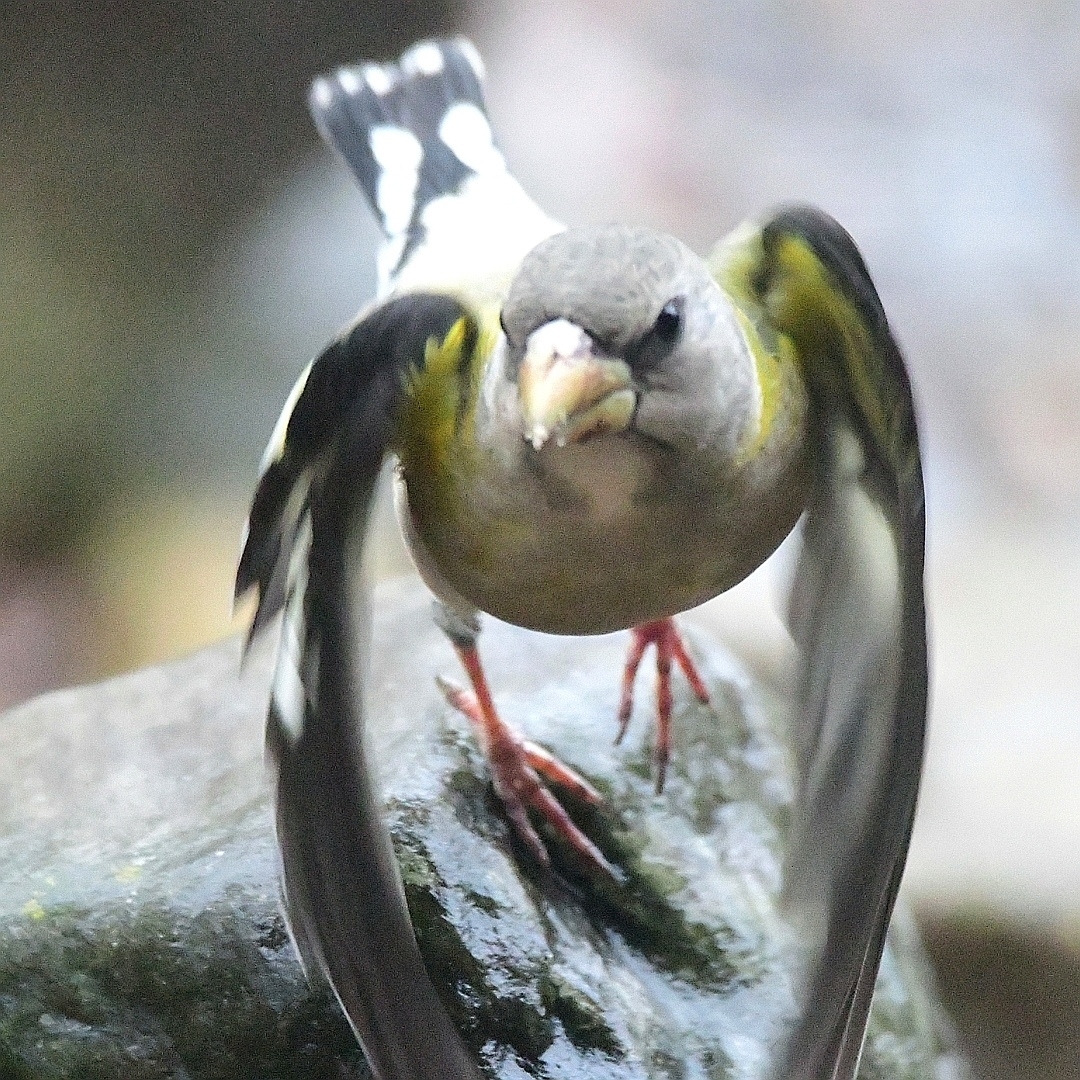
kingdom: Animalia
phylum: Chordata
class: Aves
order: Passeriformes
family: Fringillidae
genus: Hesperiphona
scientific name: Hesperiphona vespertina
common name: Evening grosbeak
